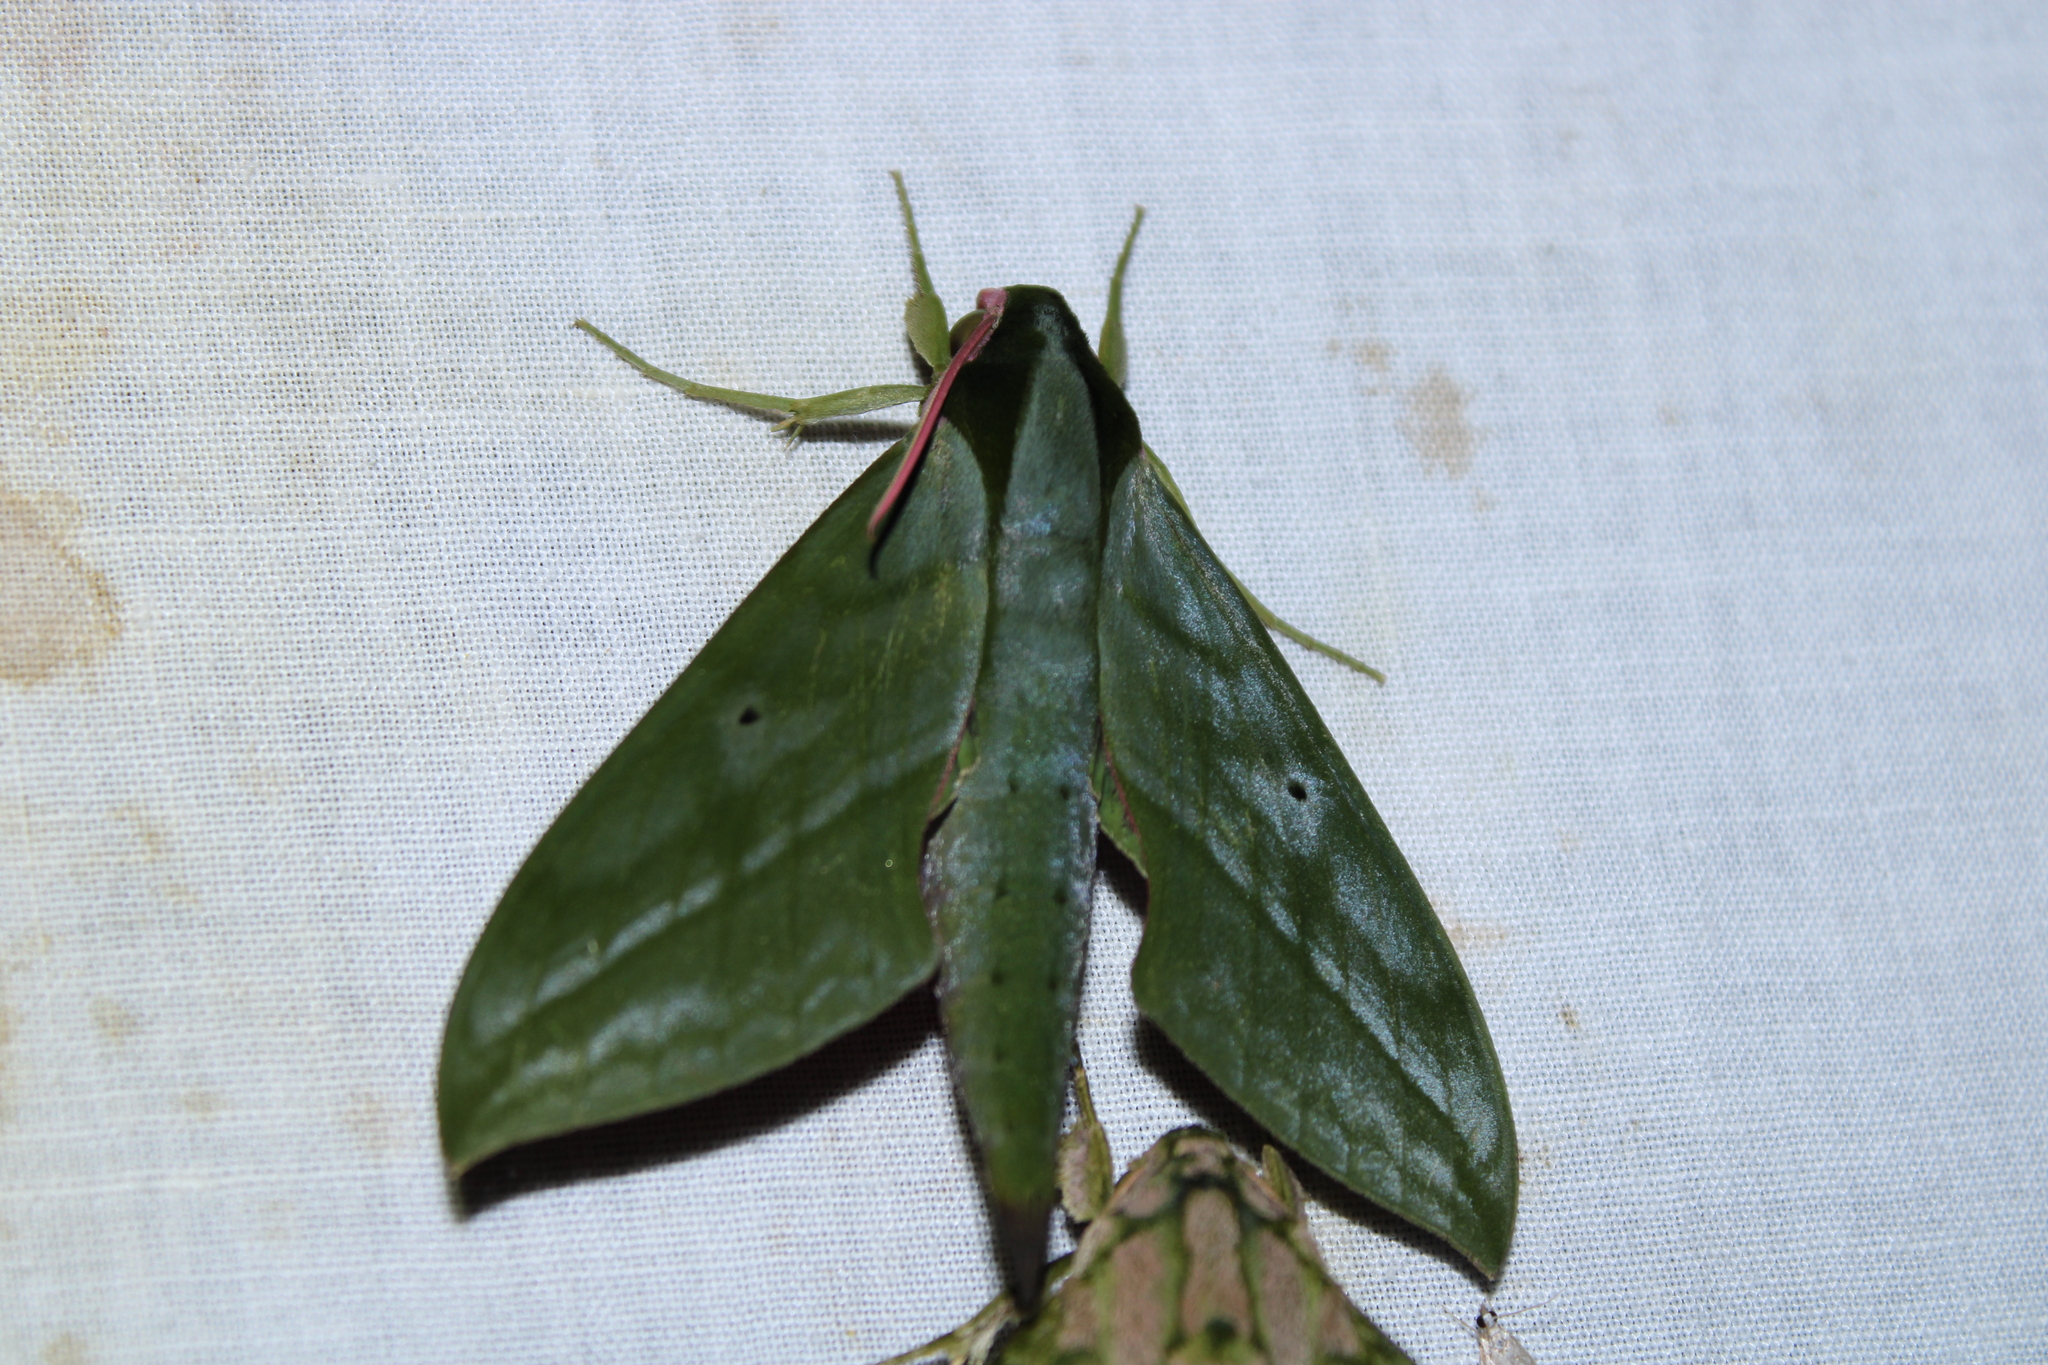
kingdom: Animalia
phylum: Arthropoda
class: Insecta
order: Lepidoptera
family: Sphingidae
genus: Xylophanes
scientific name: Xylophanes belti
